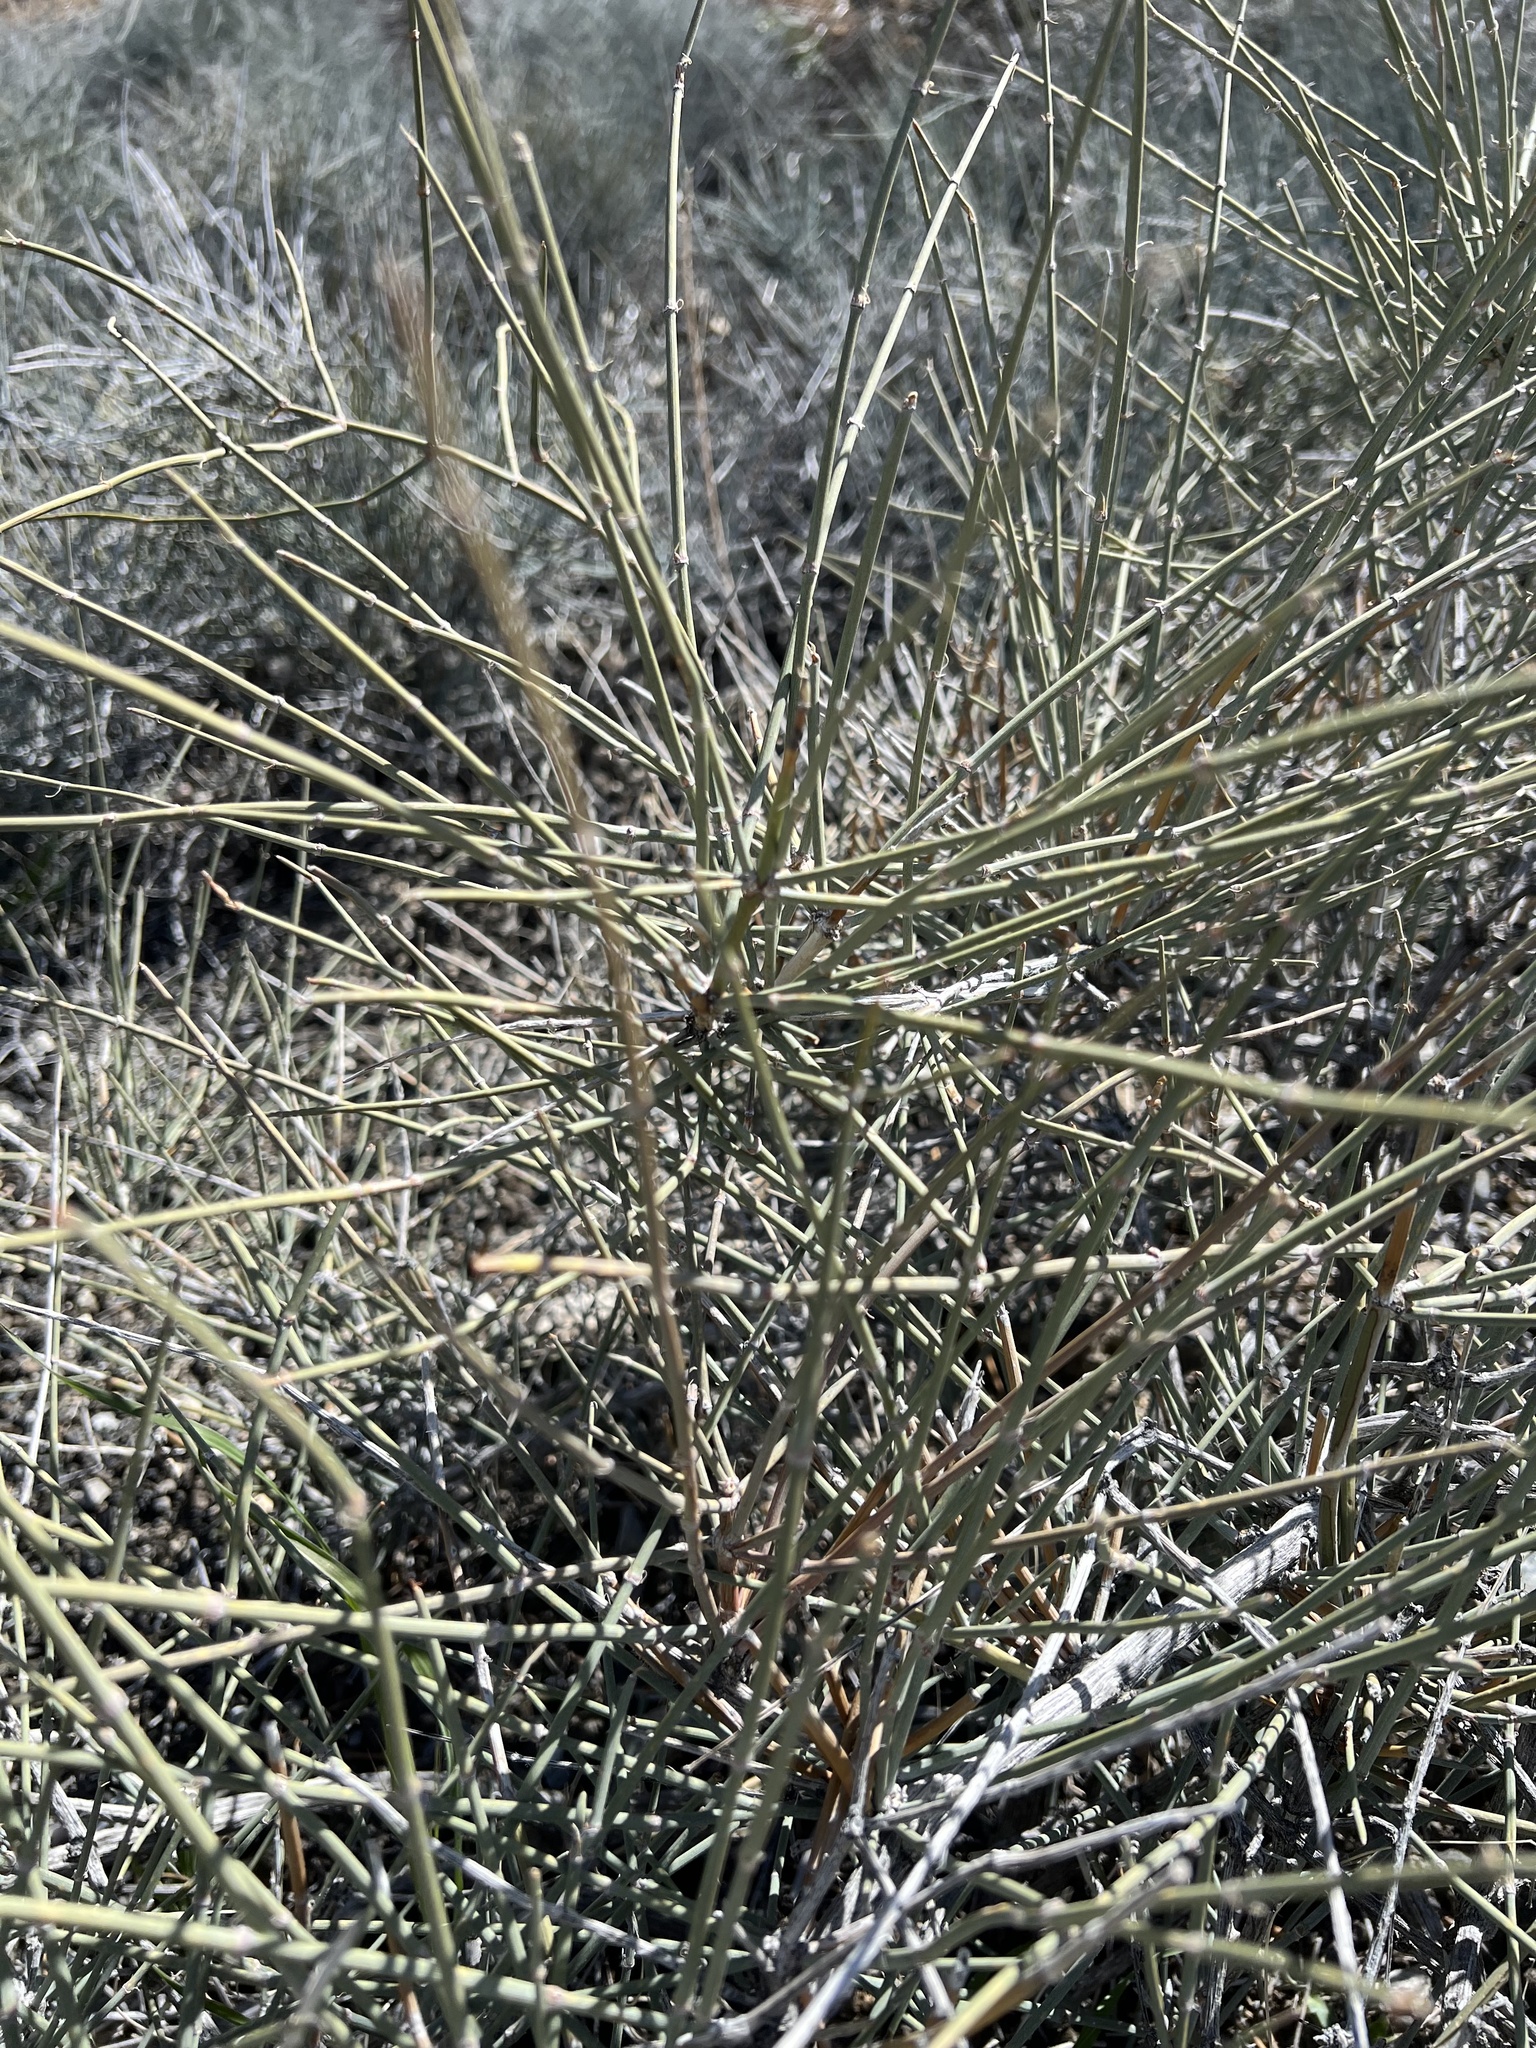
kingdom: Plantae
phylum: Tracheophyta
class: Gnetopsida
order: Ephedrales
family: Ephedraceae
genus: Ephedra
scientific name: Ephedra nevadensis
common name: Gray ephedra
